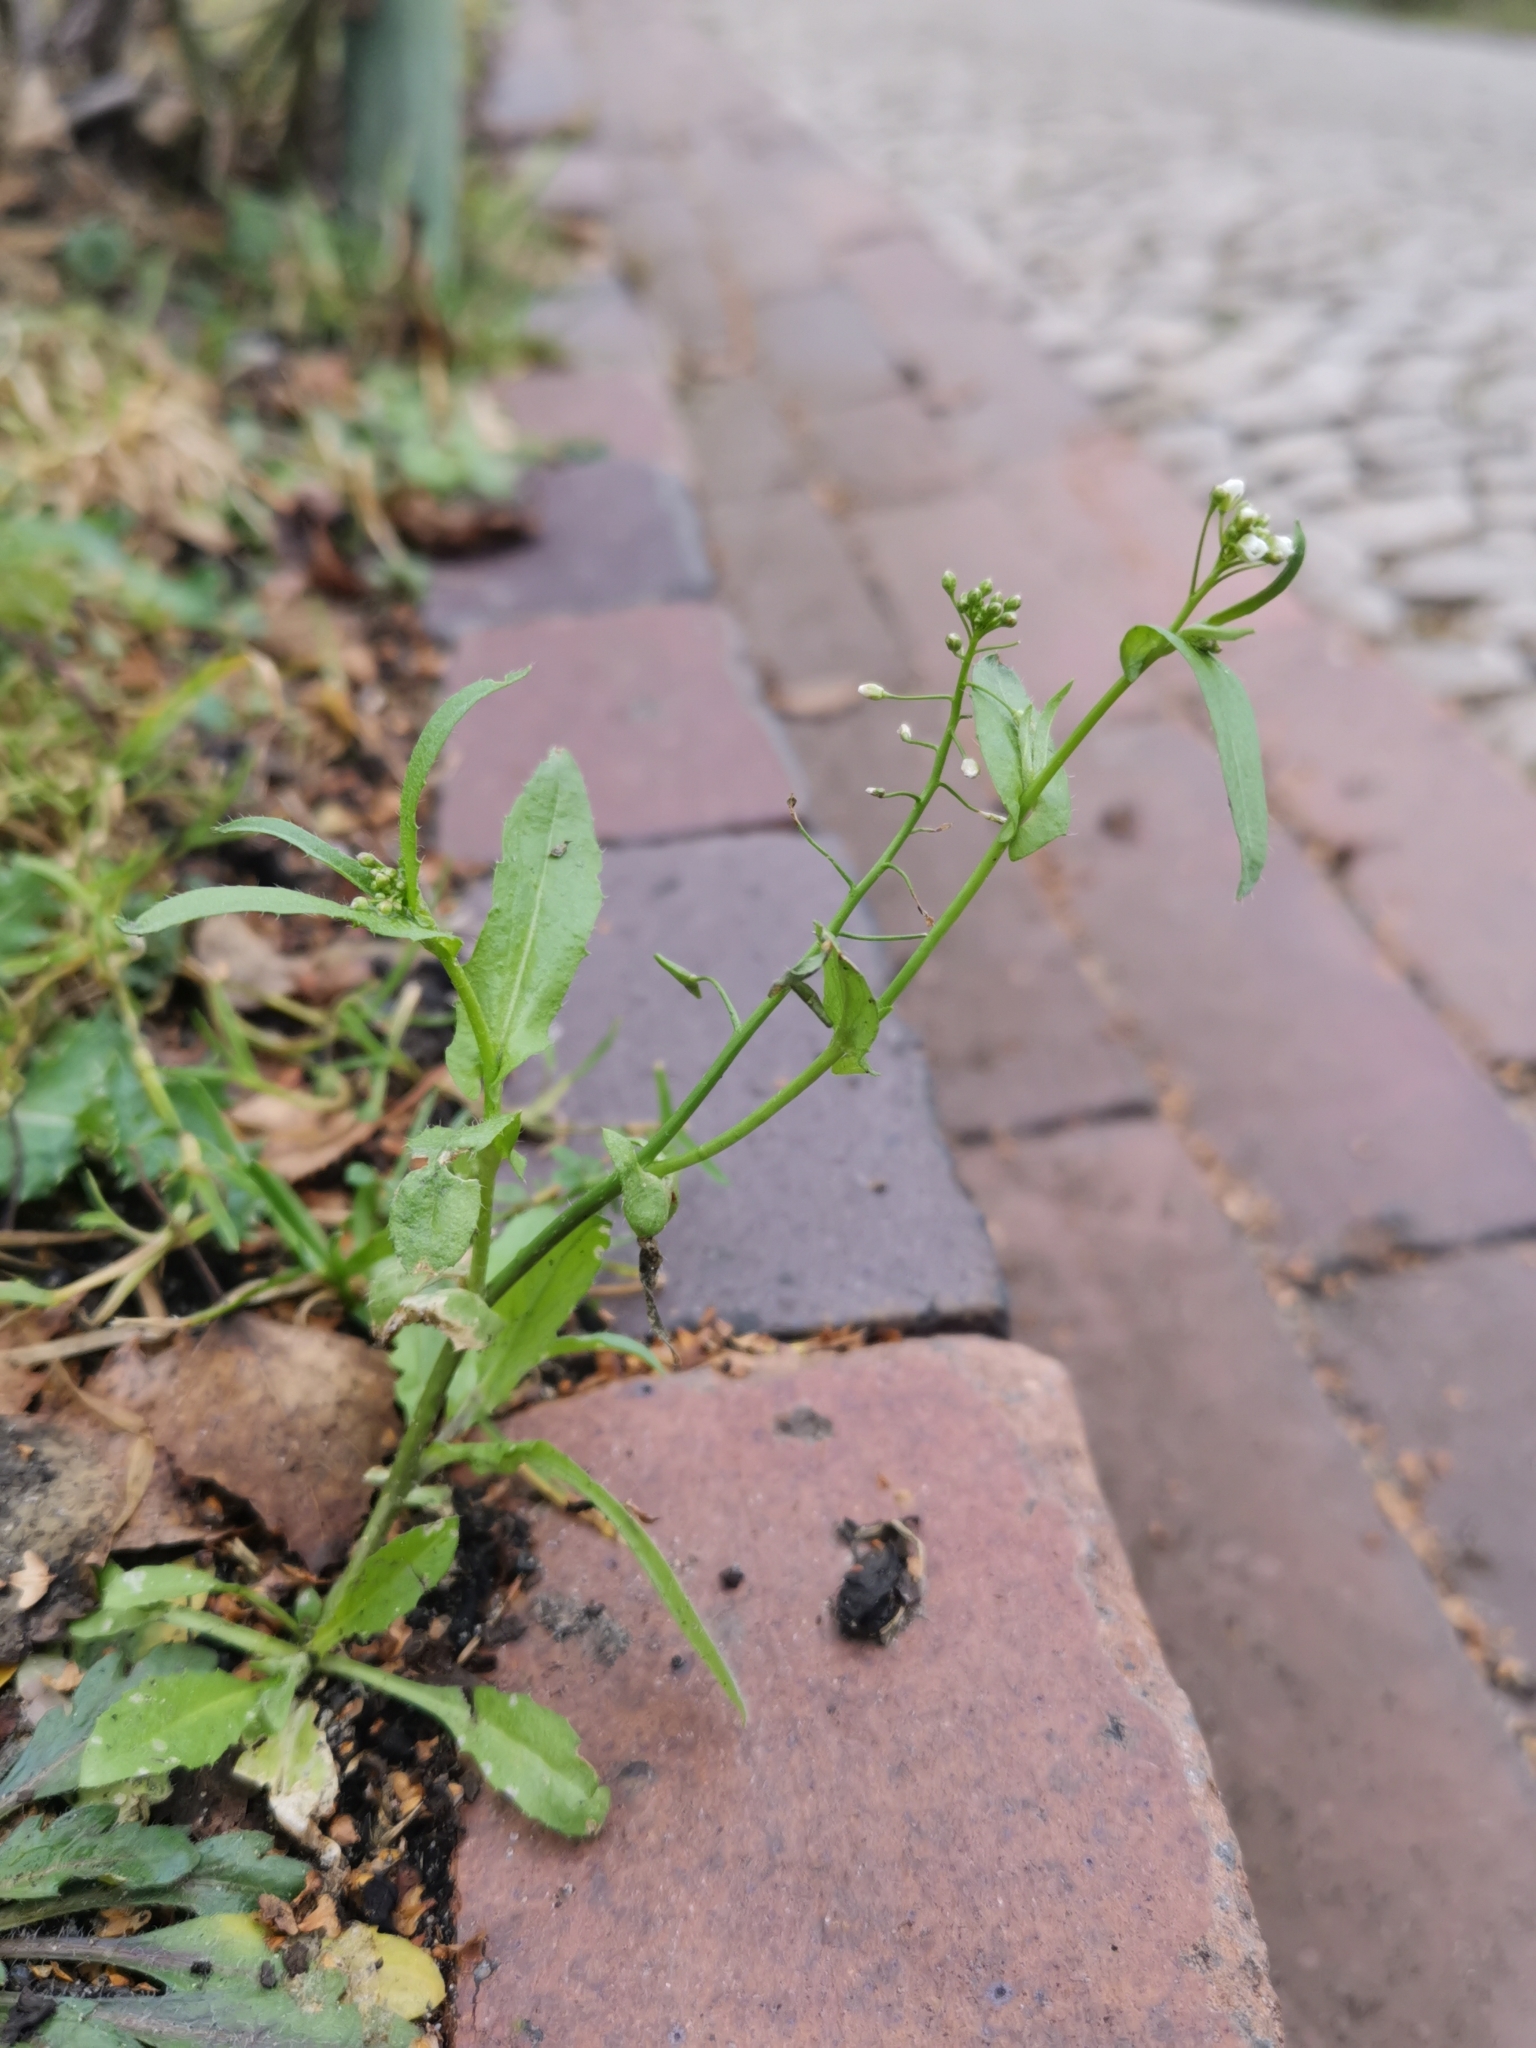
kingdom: Plantae
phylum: Tracheophyta
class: Magnoliopsida
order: Brassicales
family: Brassicaceae
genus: Capsella
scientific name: Capsella bursa-pastoris
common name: Shepherd's purse
